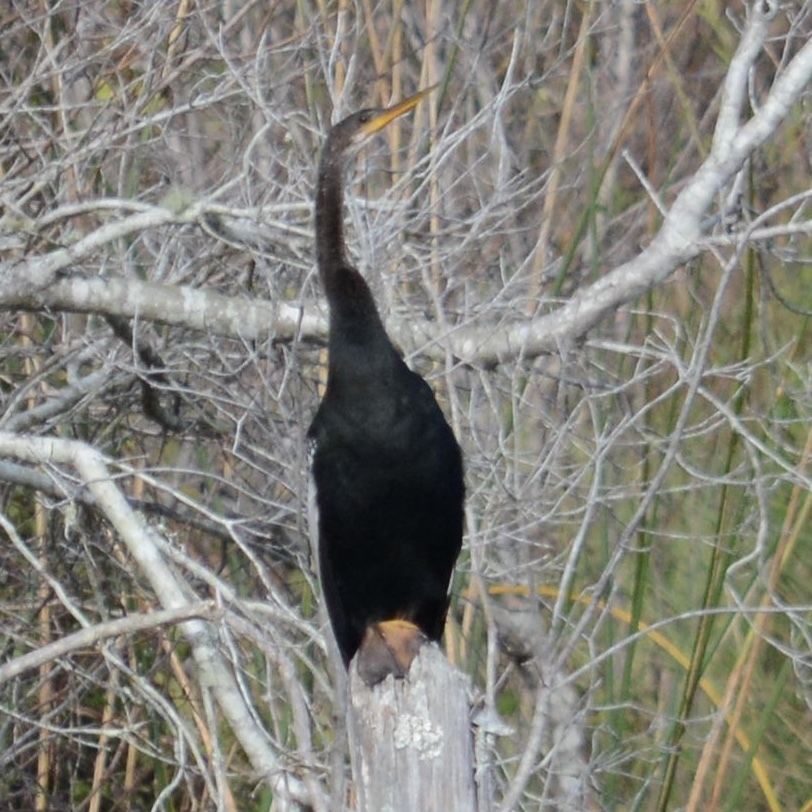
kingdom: Animalia
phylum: Chordata
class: Aves
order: Suliformes
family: Anhingidae
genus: Anhinga
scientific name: Anhinga anhinga
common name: Anhinga
